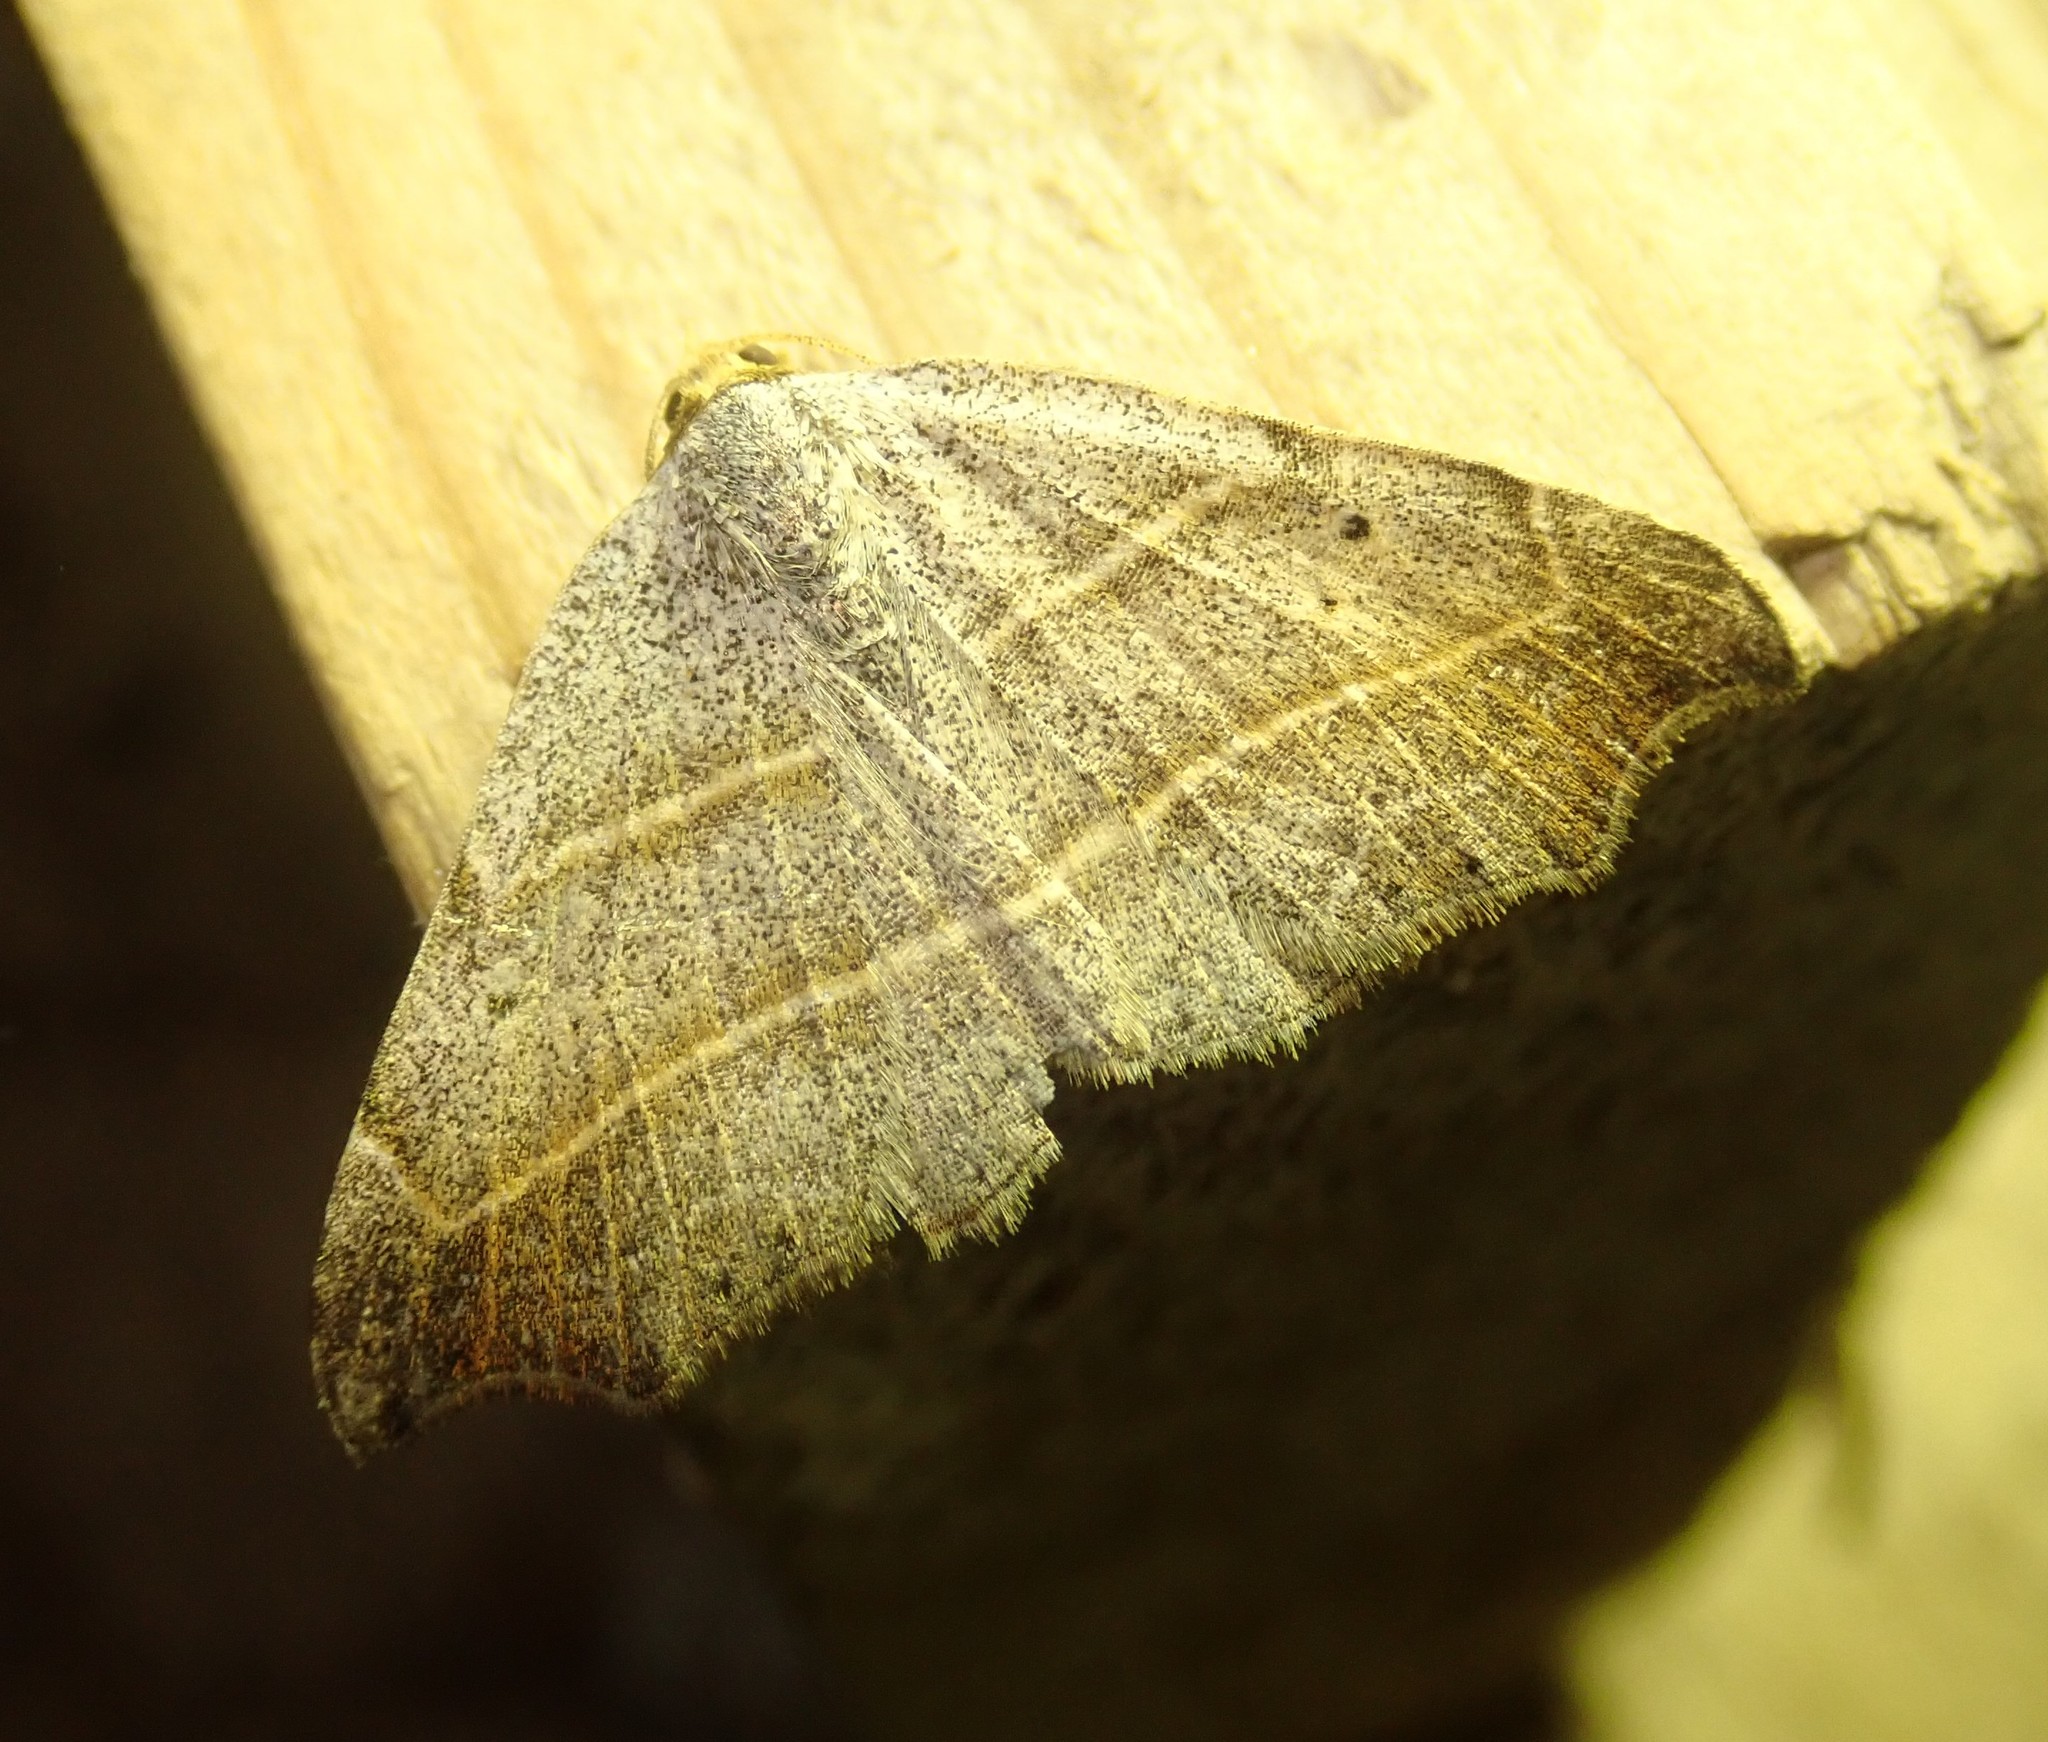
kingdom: Animalia
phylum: Arthropoda
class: Insecta
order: Lepidoptera
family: Erebidae
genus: Laspeyria
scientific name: Laspeyria flexula
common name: Beautiful hook-tip
